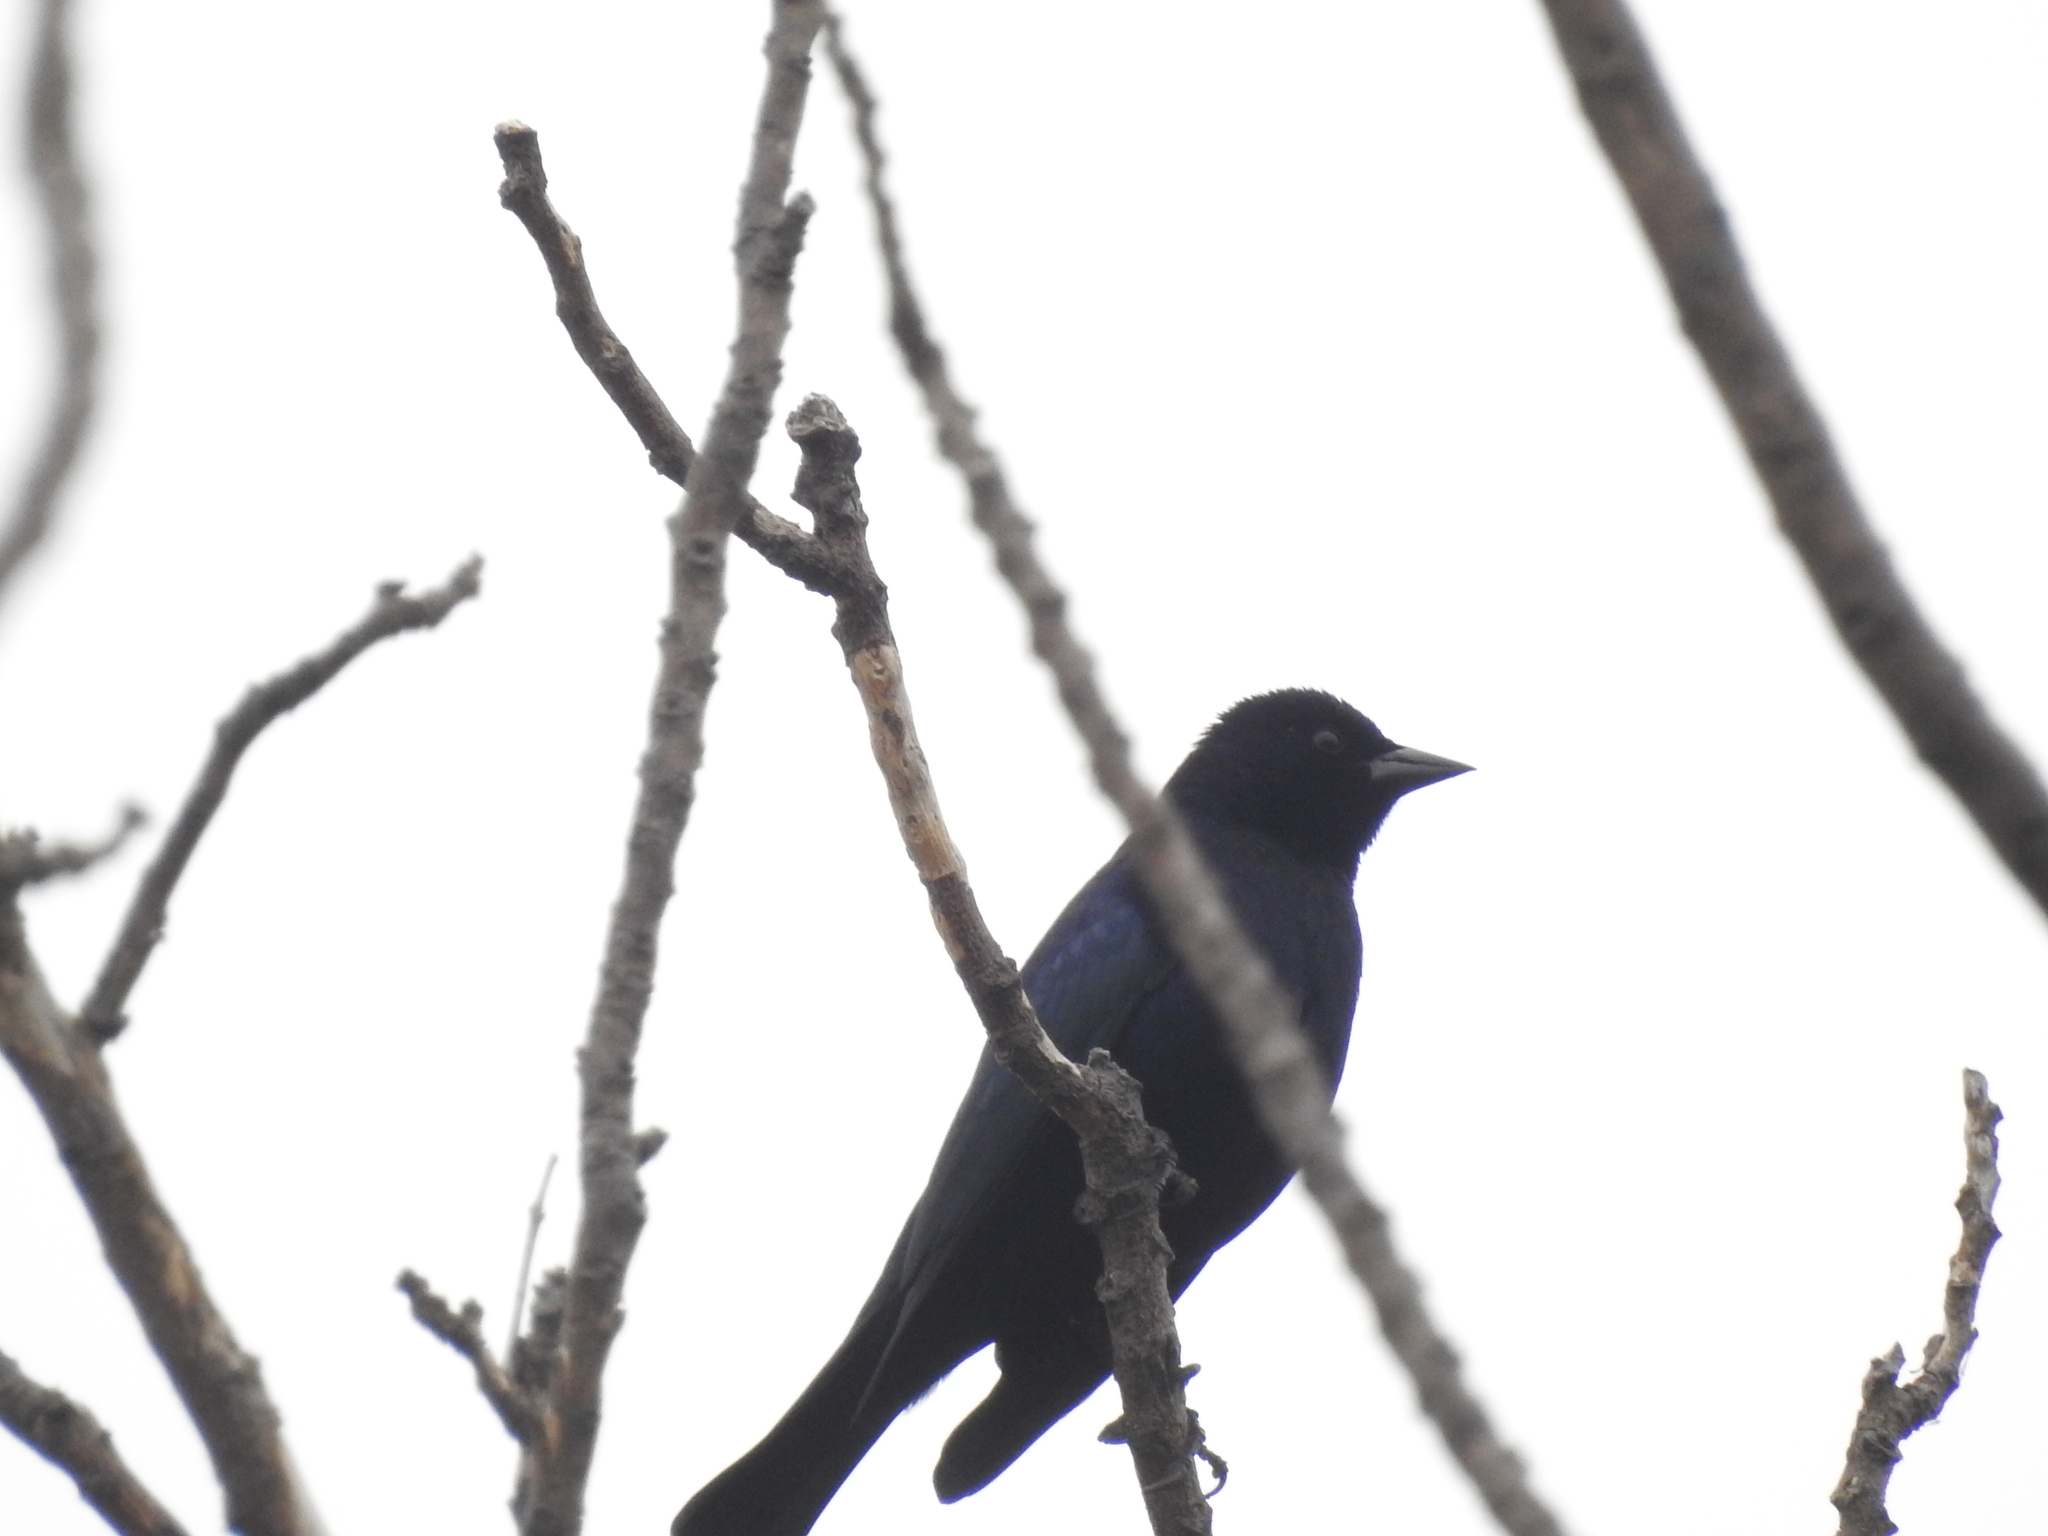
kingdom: Animalia
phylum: Chordata
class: Aves
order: Passeriformes
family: Icteridae
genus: Molothrus
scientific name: Molothrus bonariensis
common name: Shiny cowbird
